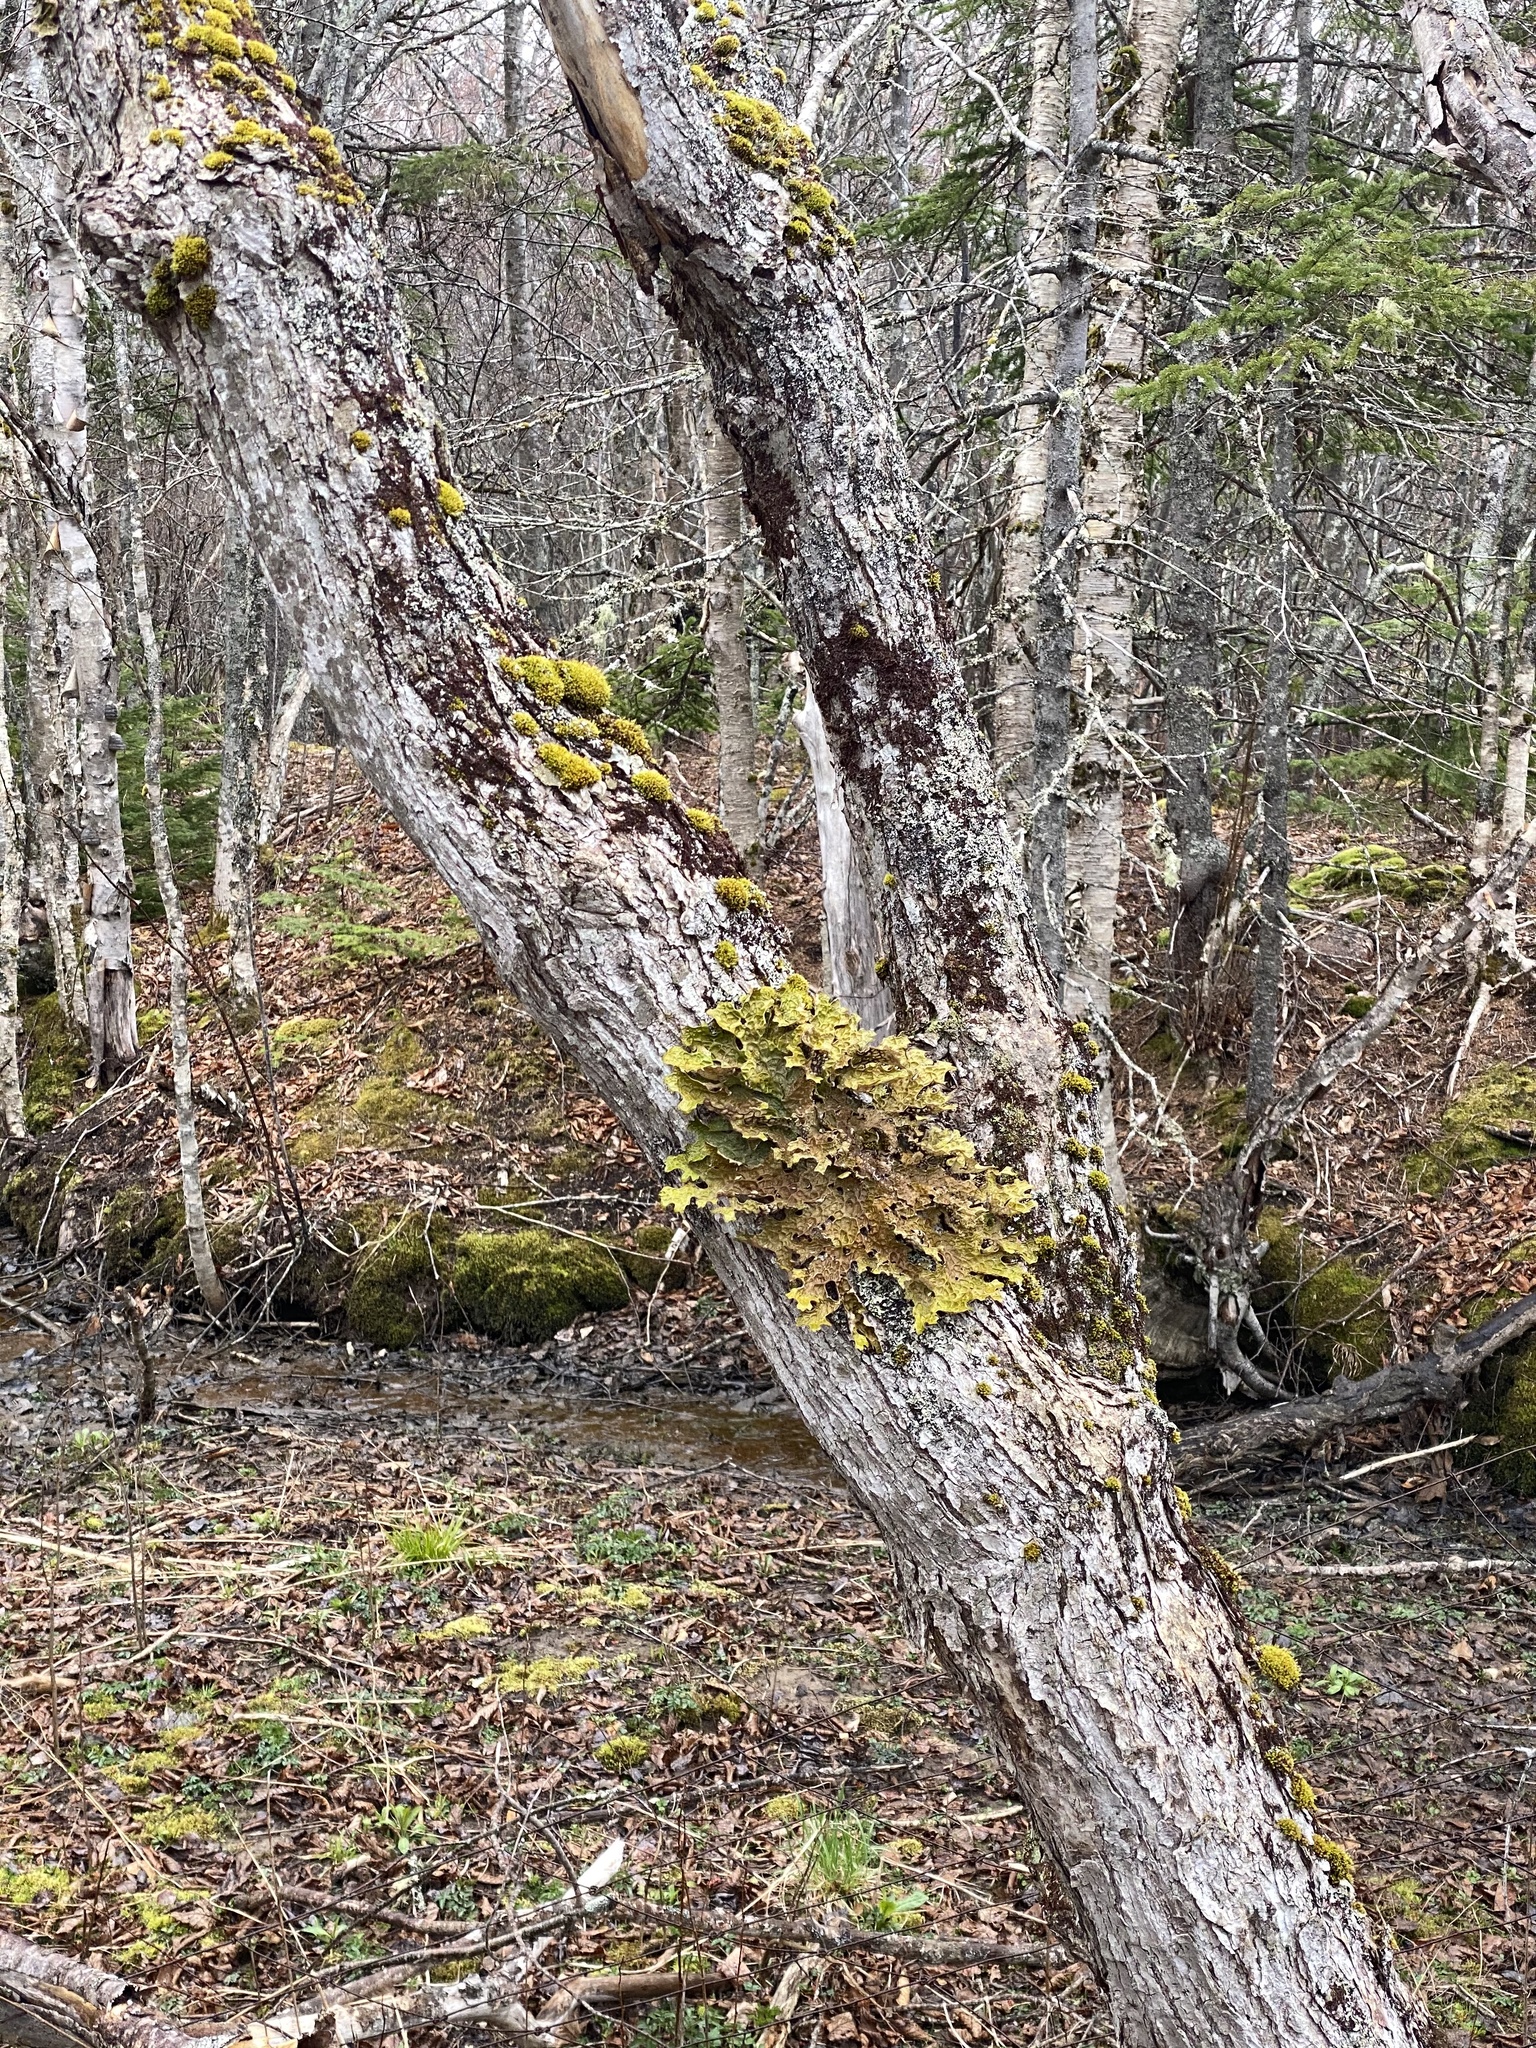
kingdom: Fungi
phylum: Ascomycota
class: Lecanoromycetes
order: Peltigerales
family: Lobariaceae
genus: Lobaria
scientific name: Lobaria pulmonaria
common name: Lungwort
